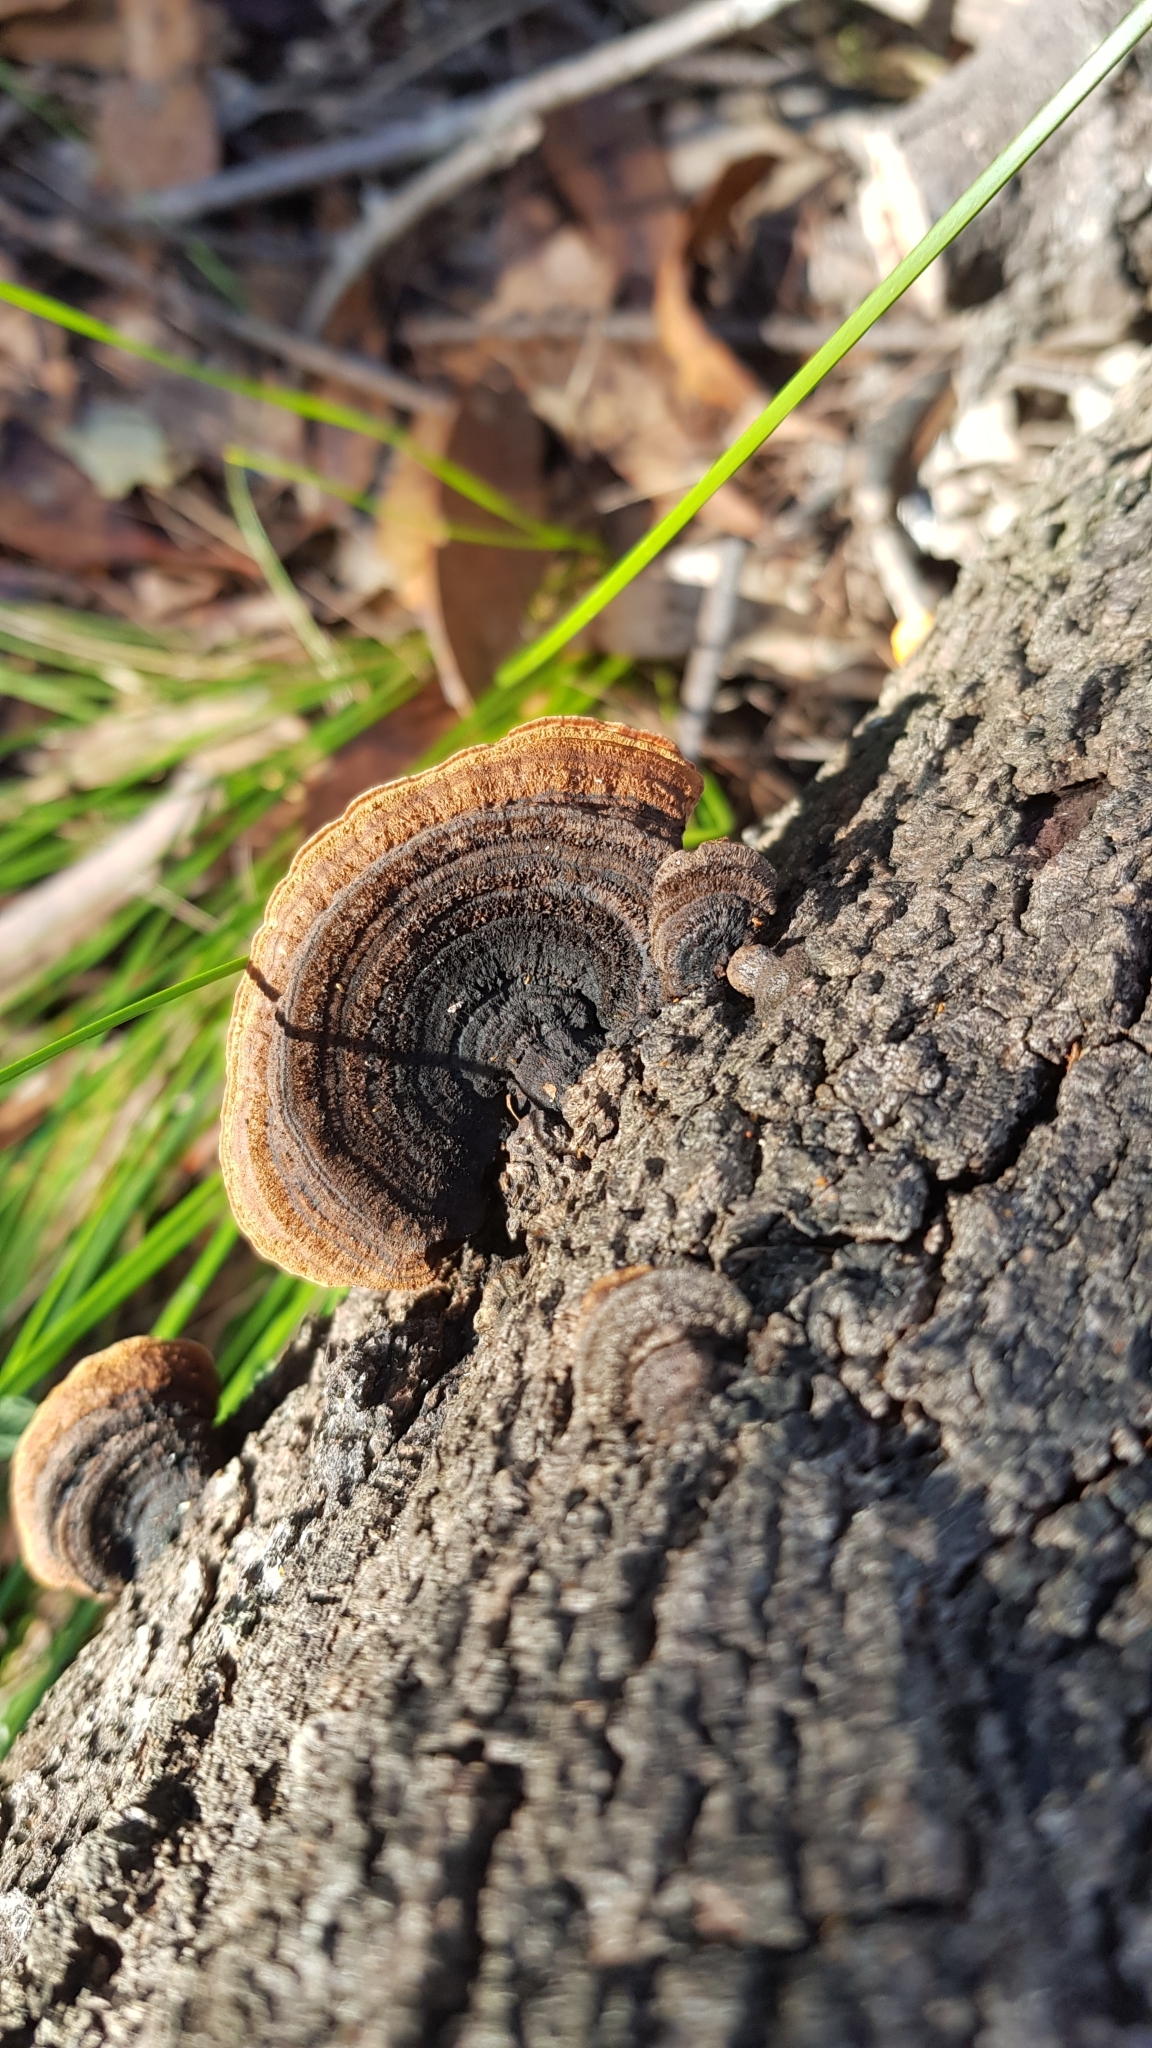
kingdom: Fungi
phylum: Basidiomycota
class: Agaricomycetes
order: Polyporales
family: Polyporaceae
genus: Phaeotrametes
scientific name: Phaeotrametes decipiens
